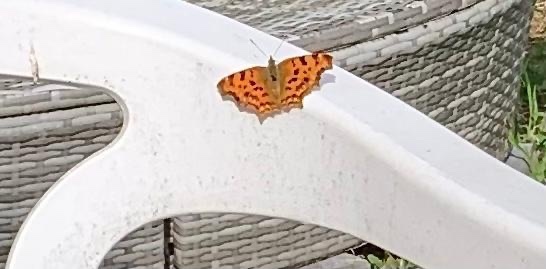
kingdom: Animalia
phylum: Arthropoda
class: Insecta
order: Lepidoptera
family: Nymphalidae
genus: Polygonia
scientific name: Polygonia c-album
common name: Comma
